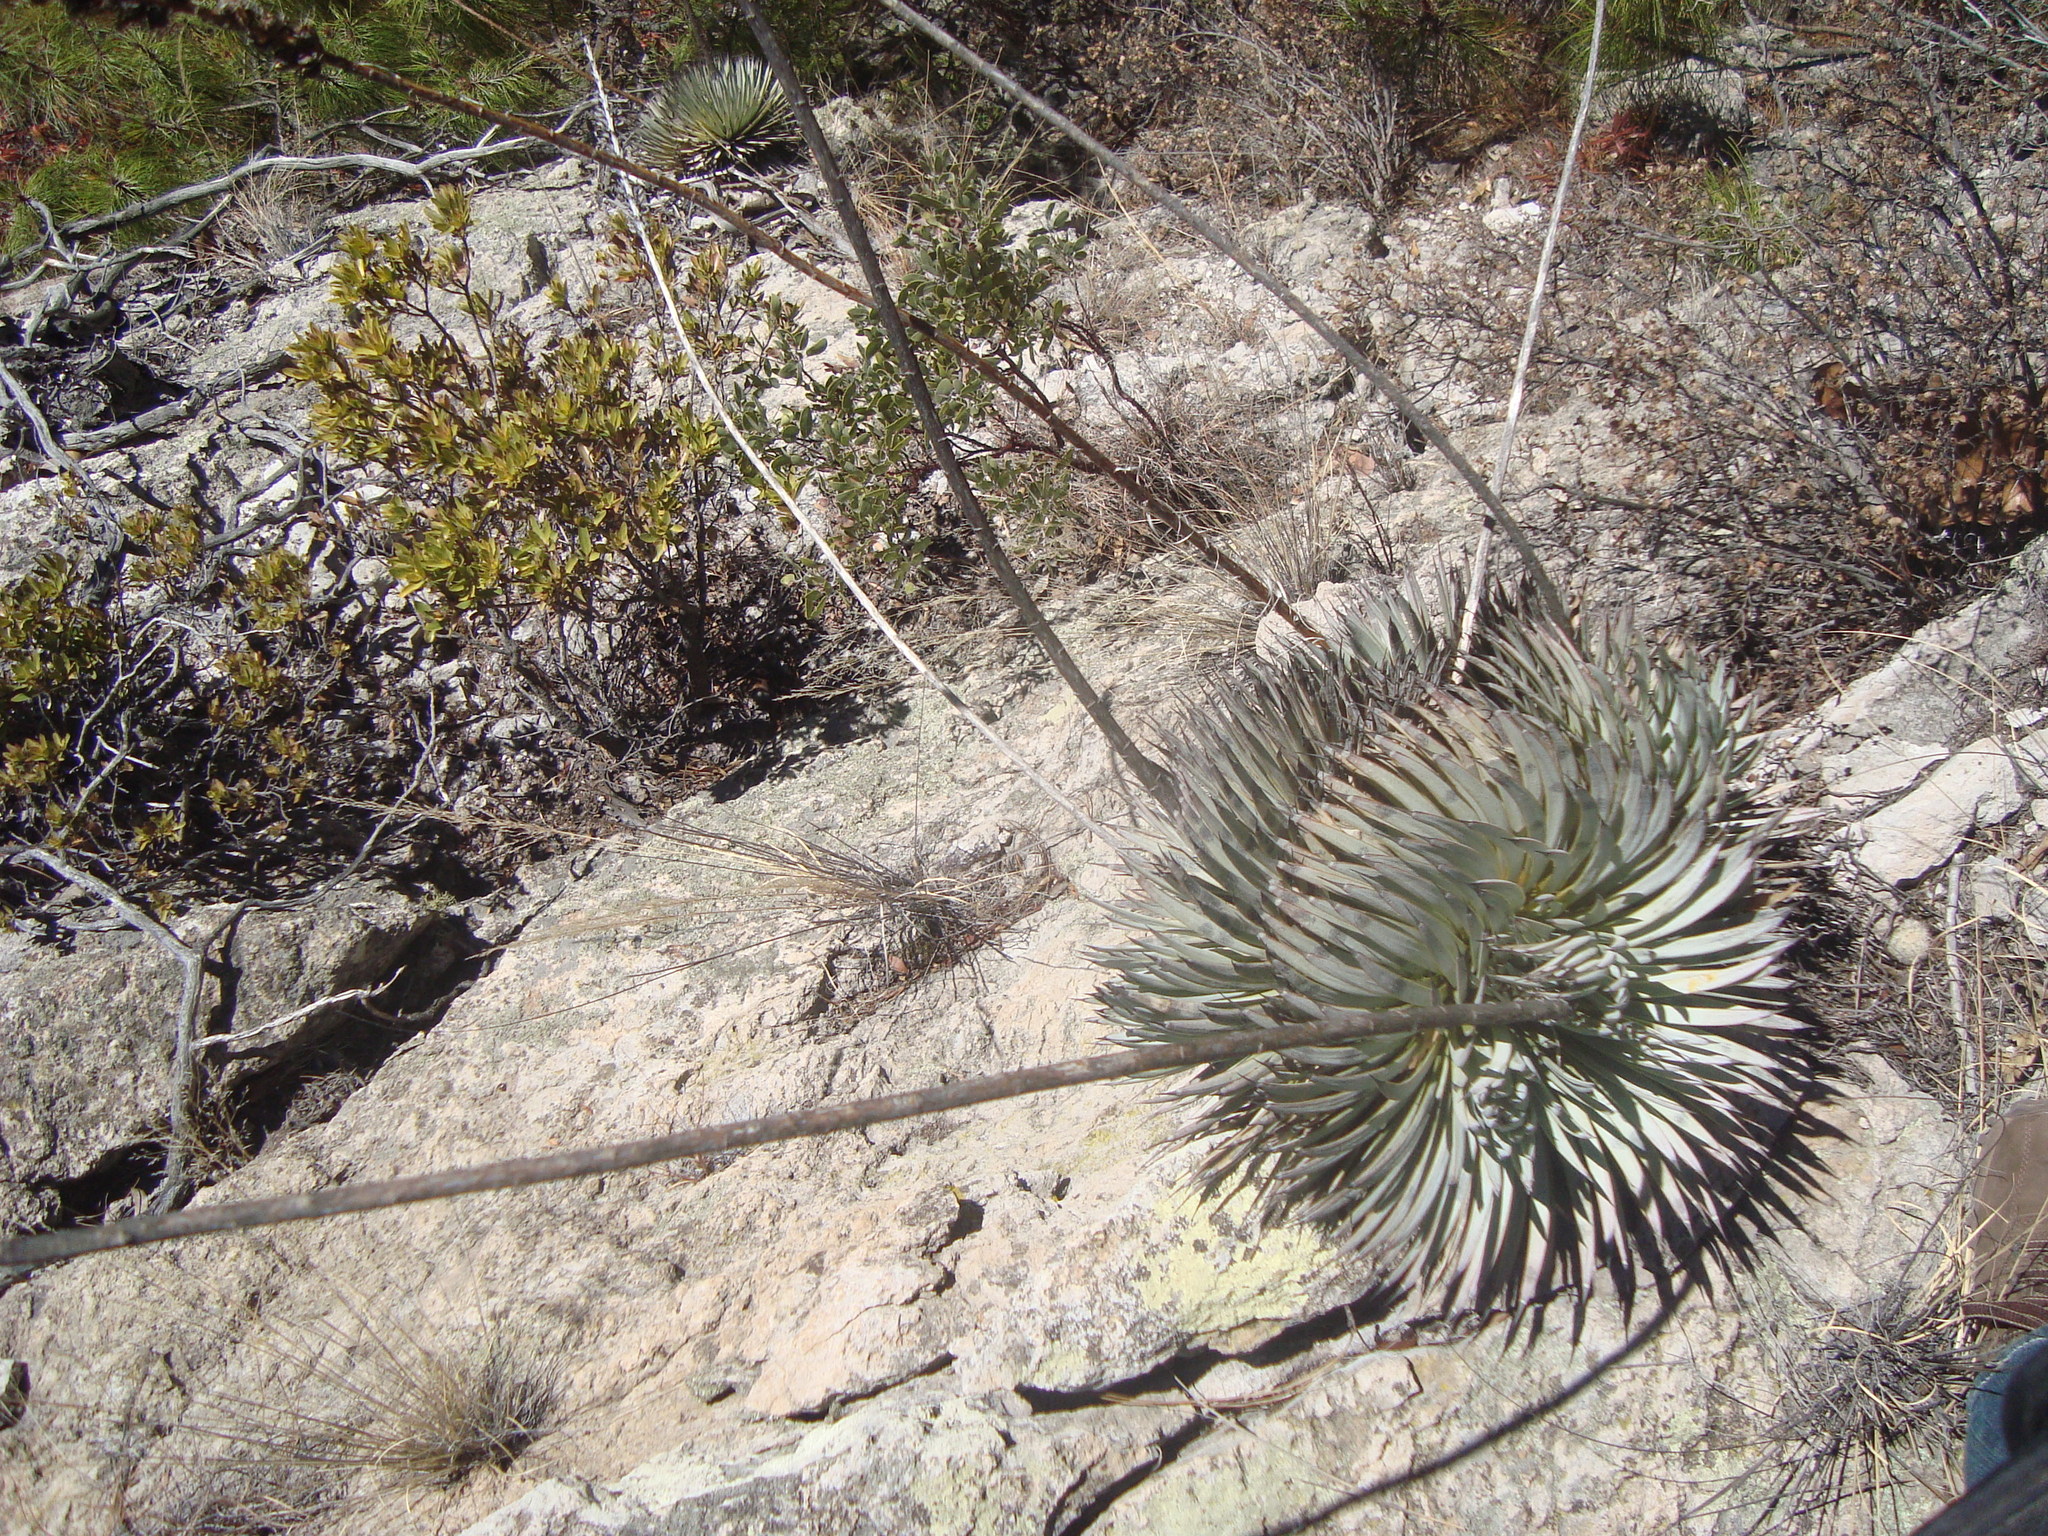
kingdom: Plantae
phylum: Tracheophyta
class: Liliopsida
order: Asparagales
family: Asparagaceae
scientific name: Asparagaceae
